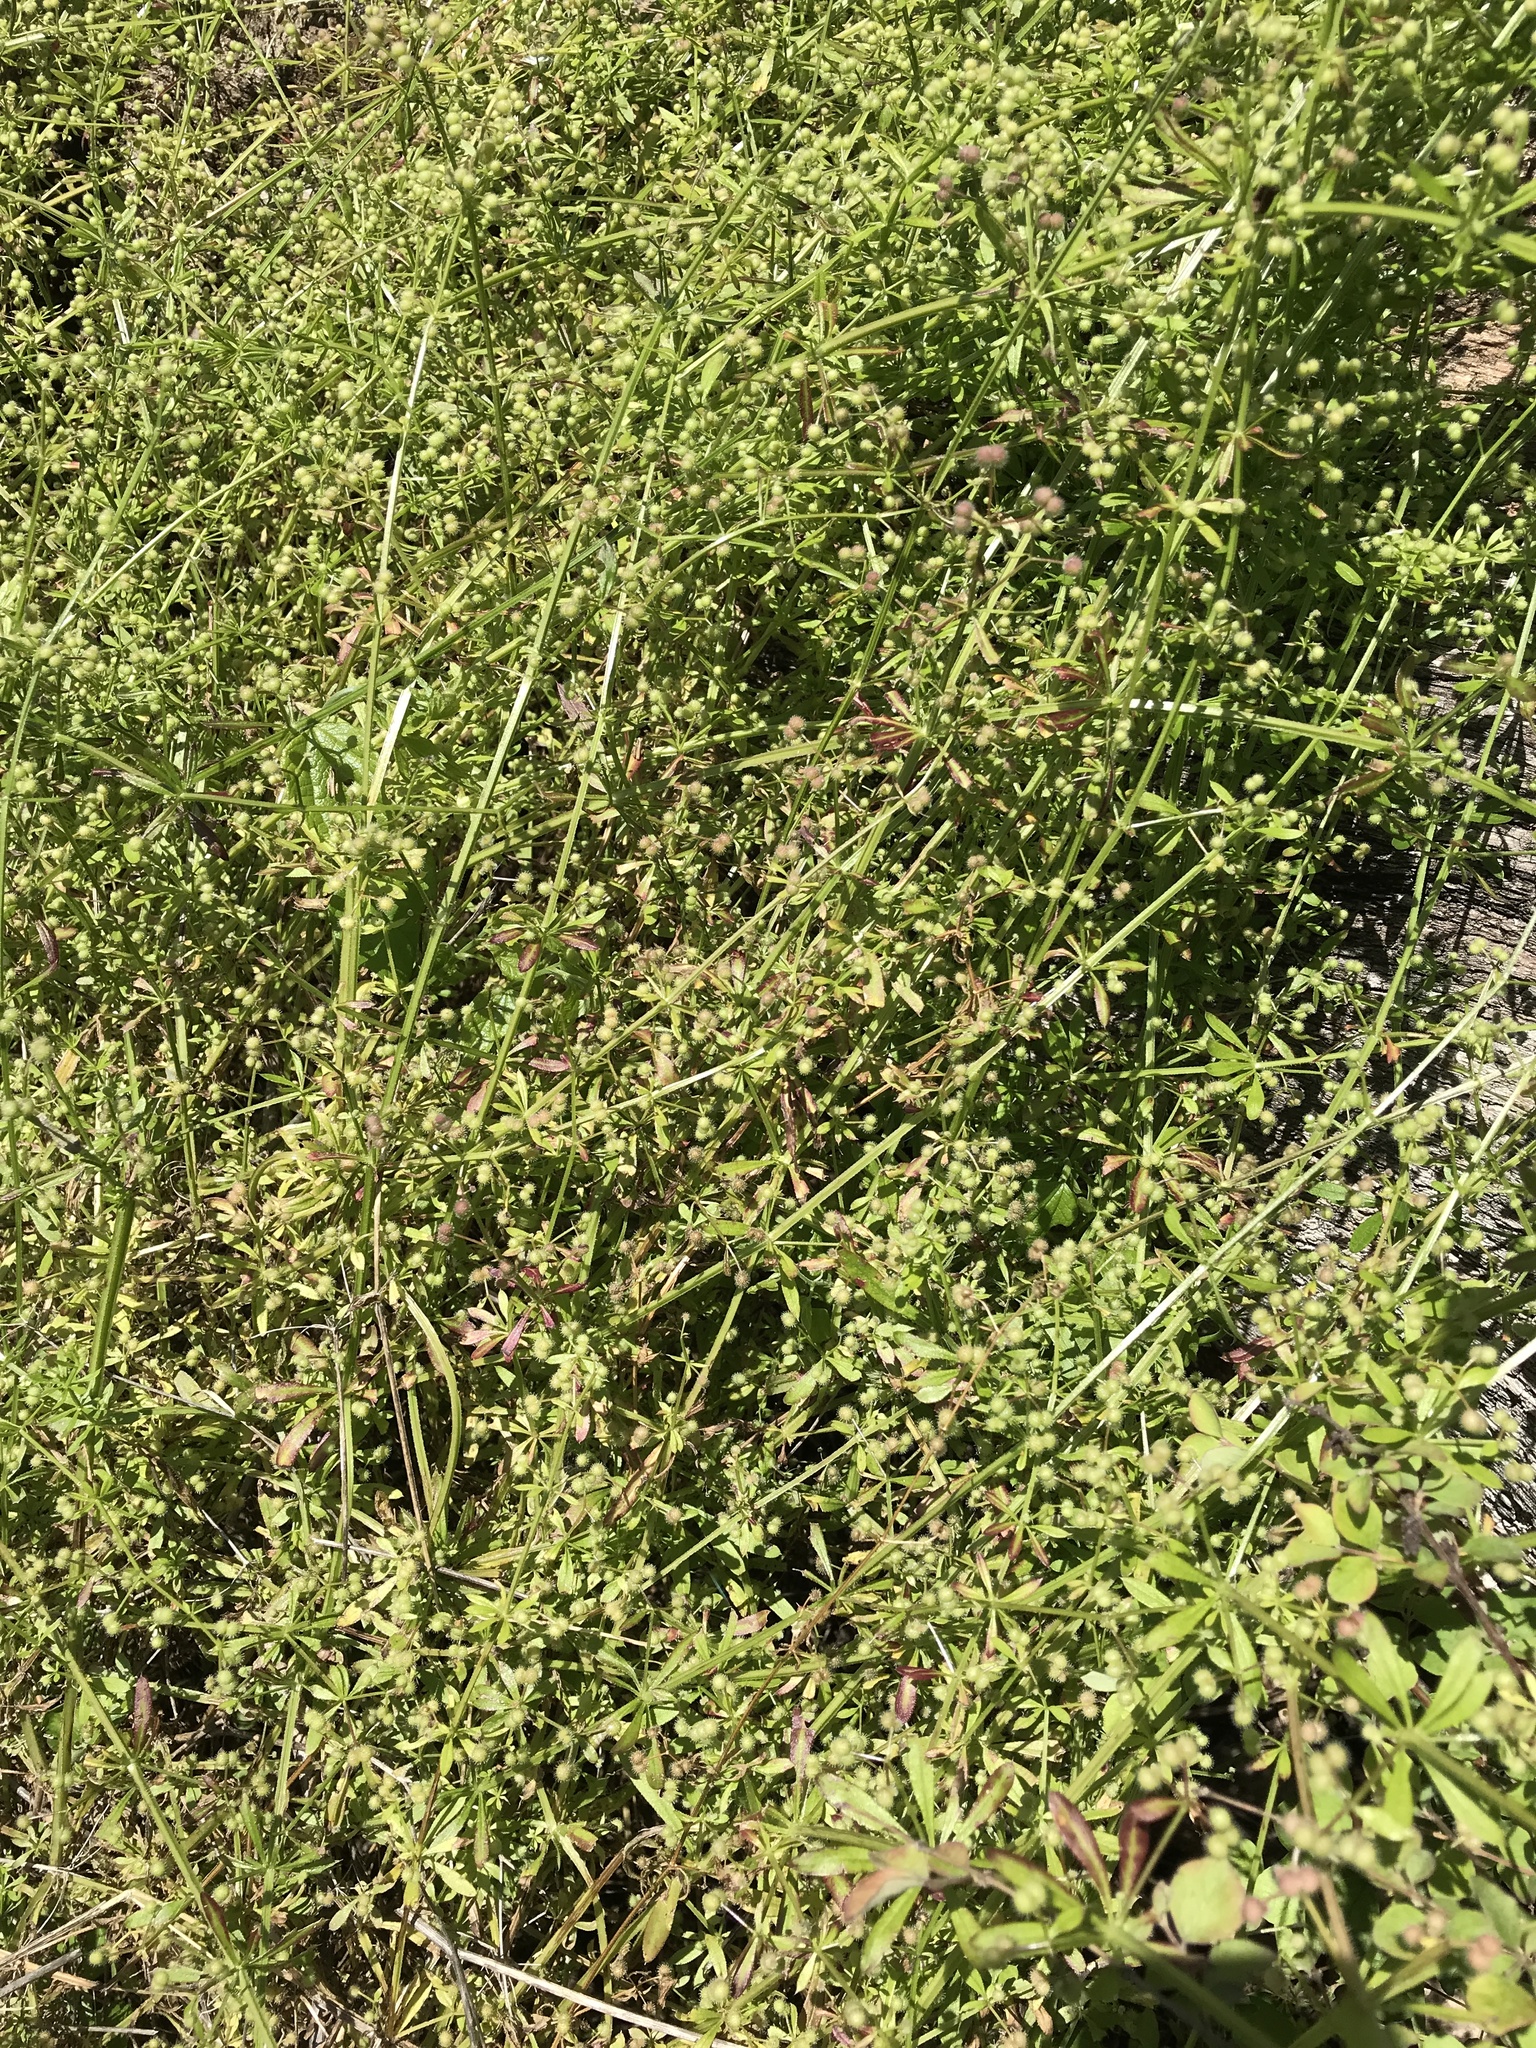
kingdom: Plantae
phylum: Tracheophyta
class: Magnoliopsida
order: Gentianales
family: Rubiaceae
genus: Galium
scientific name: Galium aparine
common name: Cleavers
